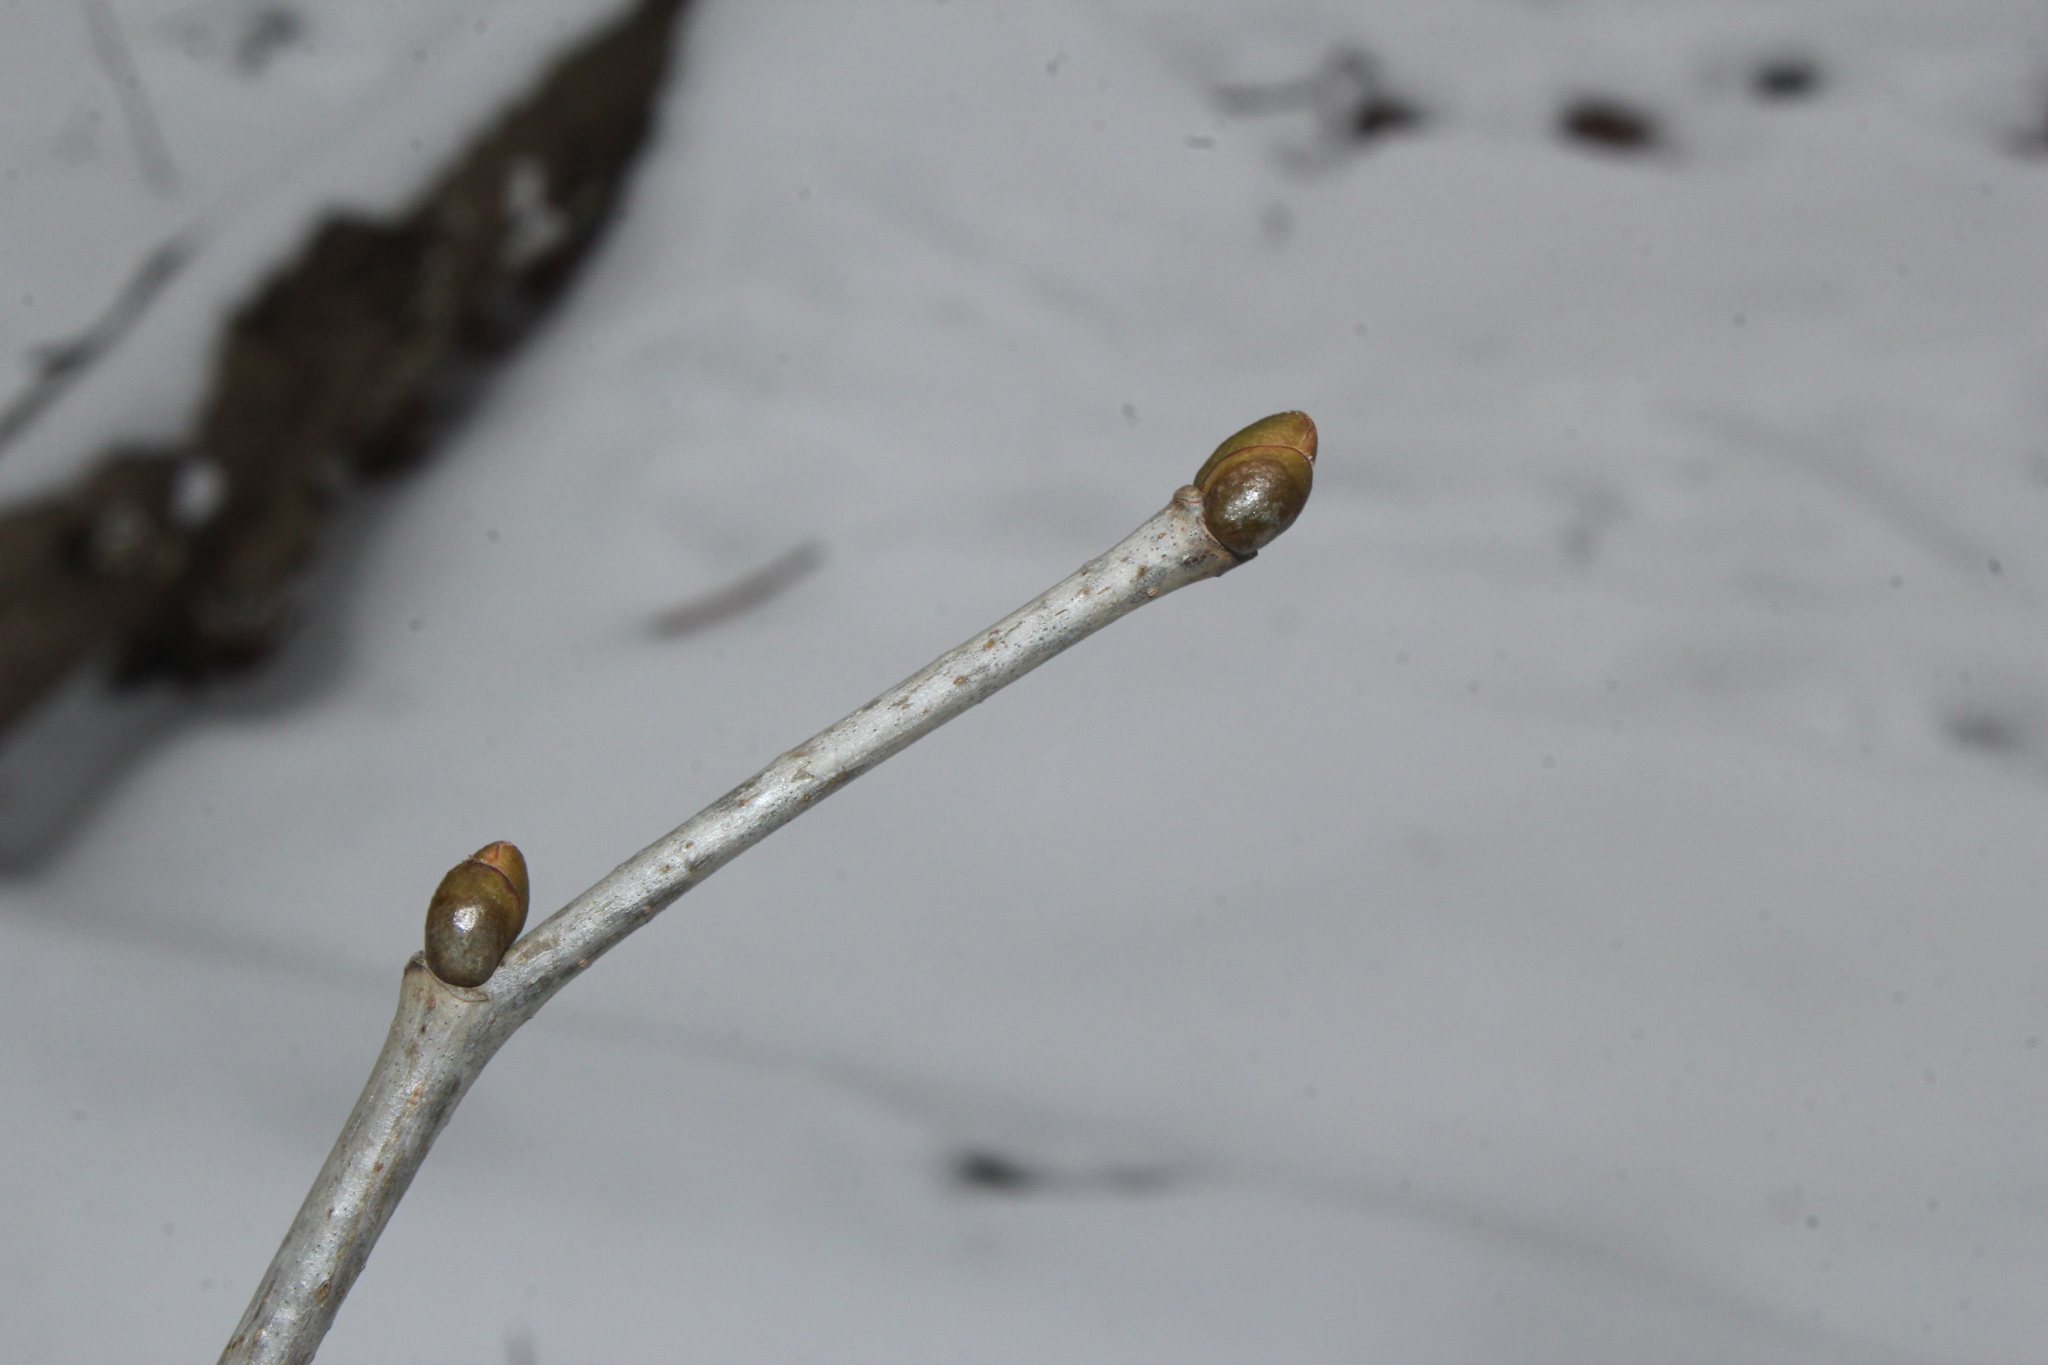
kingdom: Plantae
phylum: Tracheophyta
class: Magnoliopsida
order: Malvales
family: Malvaceae
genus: Tilia
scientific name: Tilia americana
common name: Basswood
